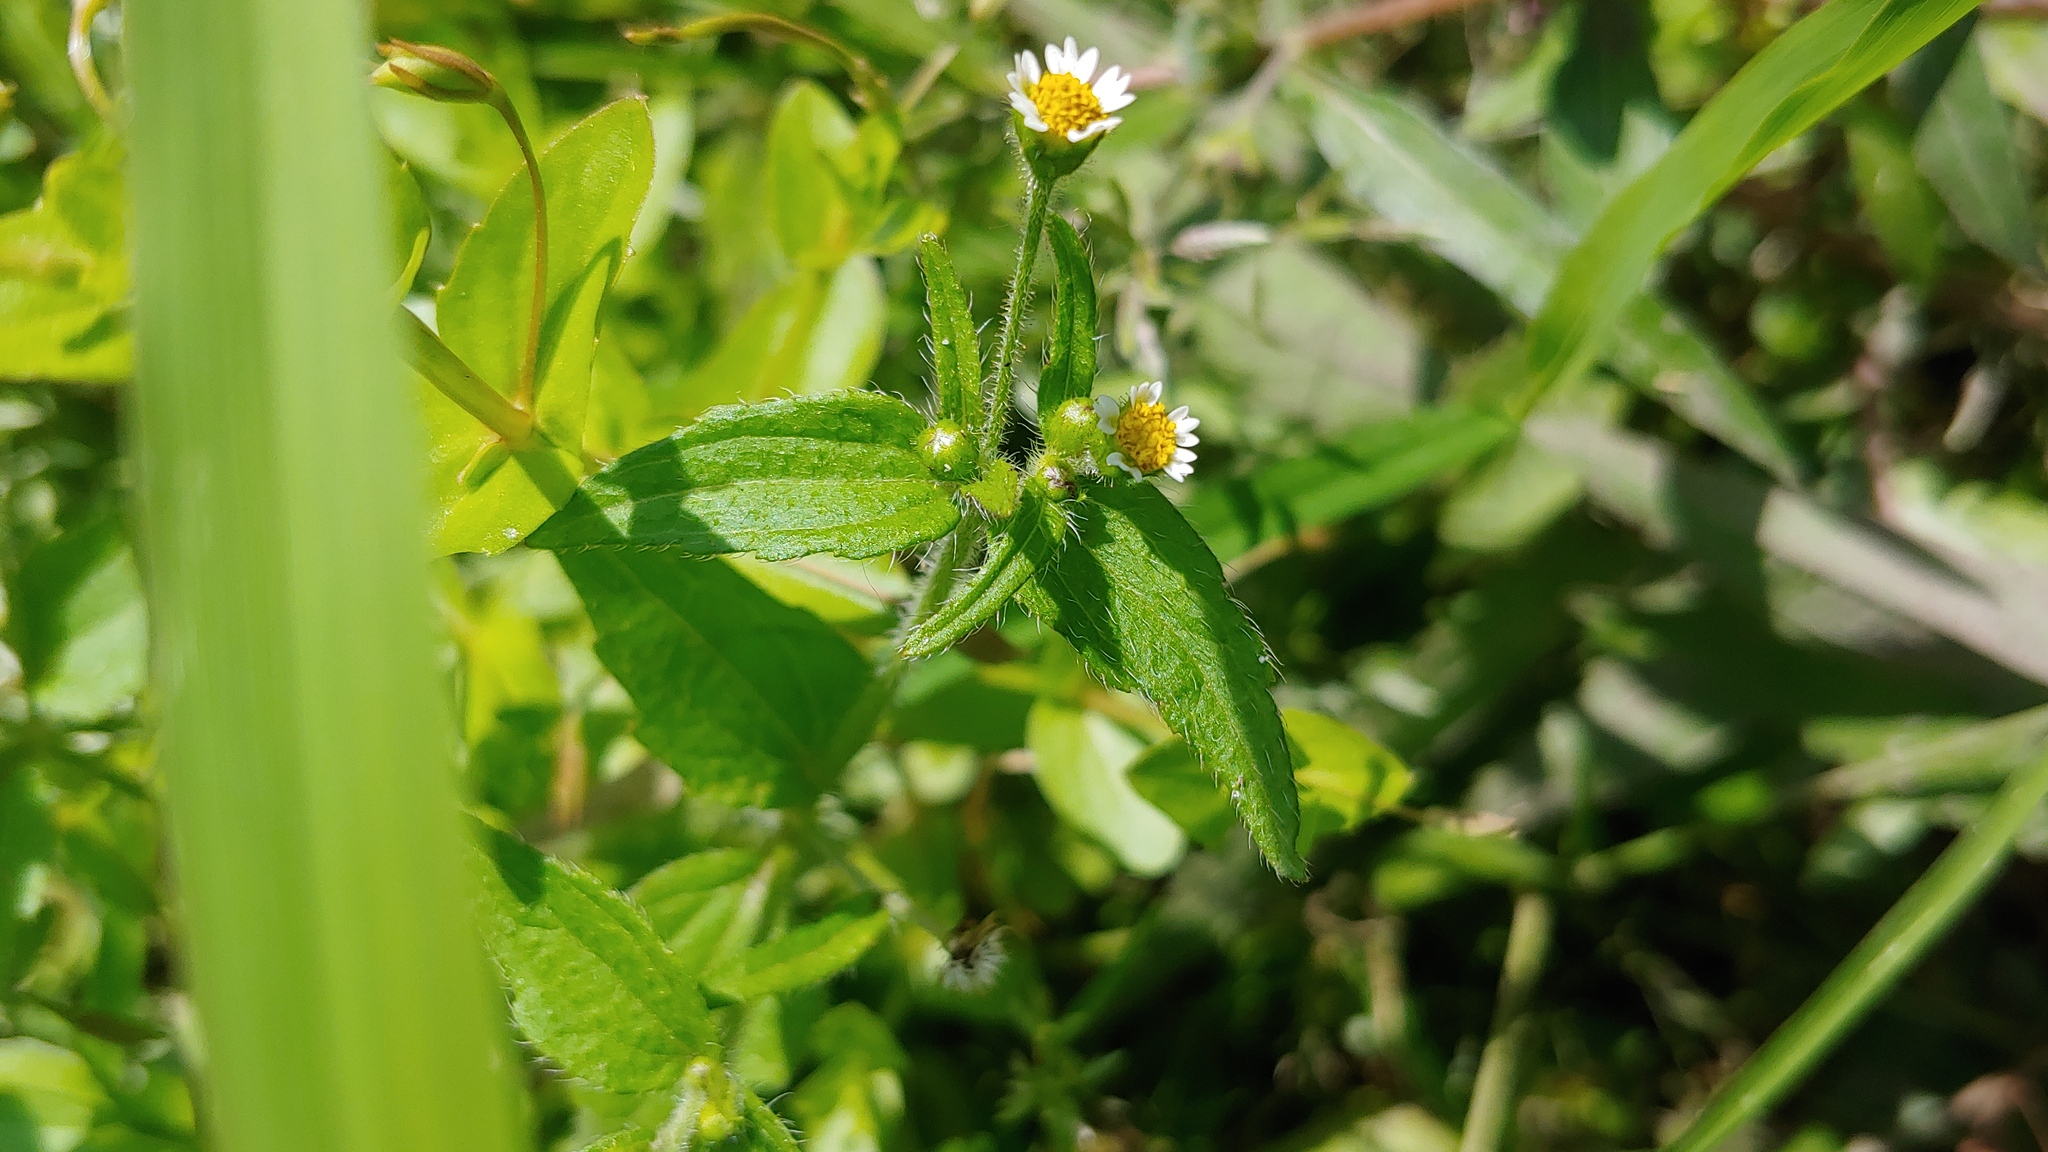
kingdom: Plantae
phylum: Tracheophyta
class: Magnoliopsida
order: Asterales
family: Asteraceae
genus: Galinsoga
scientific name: Galinsoga quadriradiata
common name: Shaggy soldier
